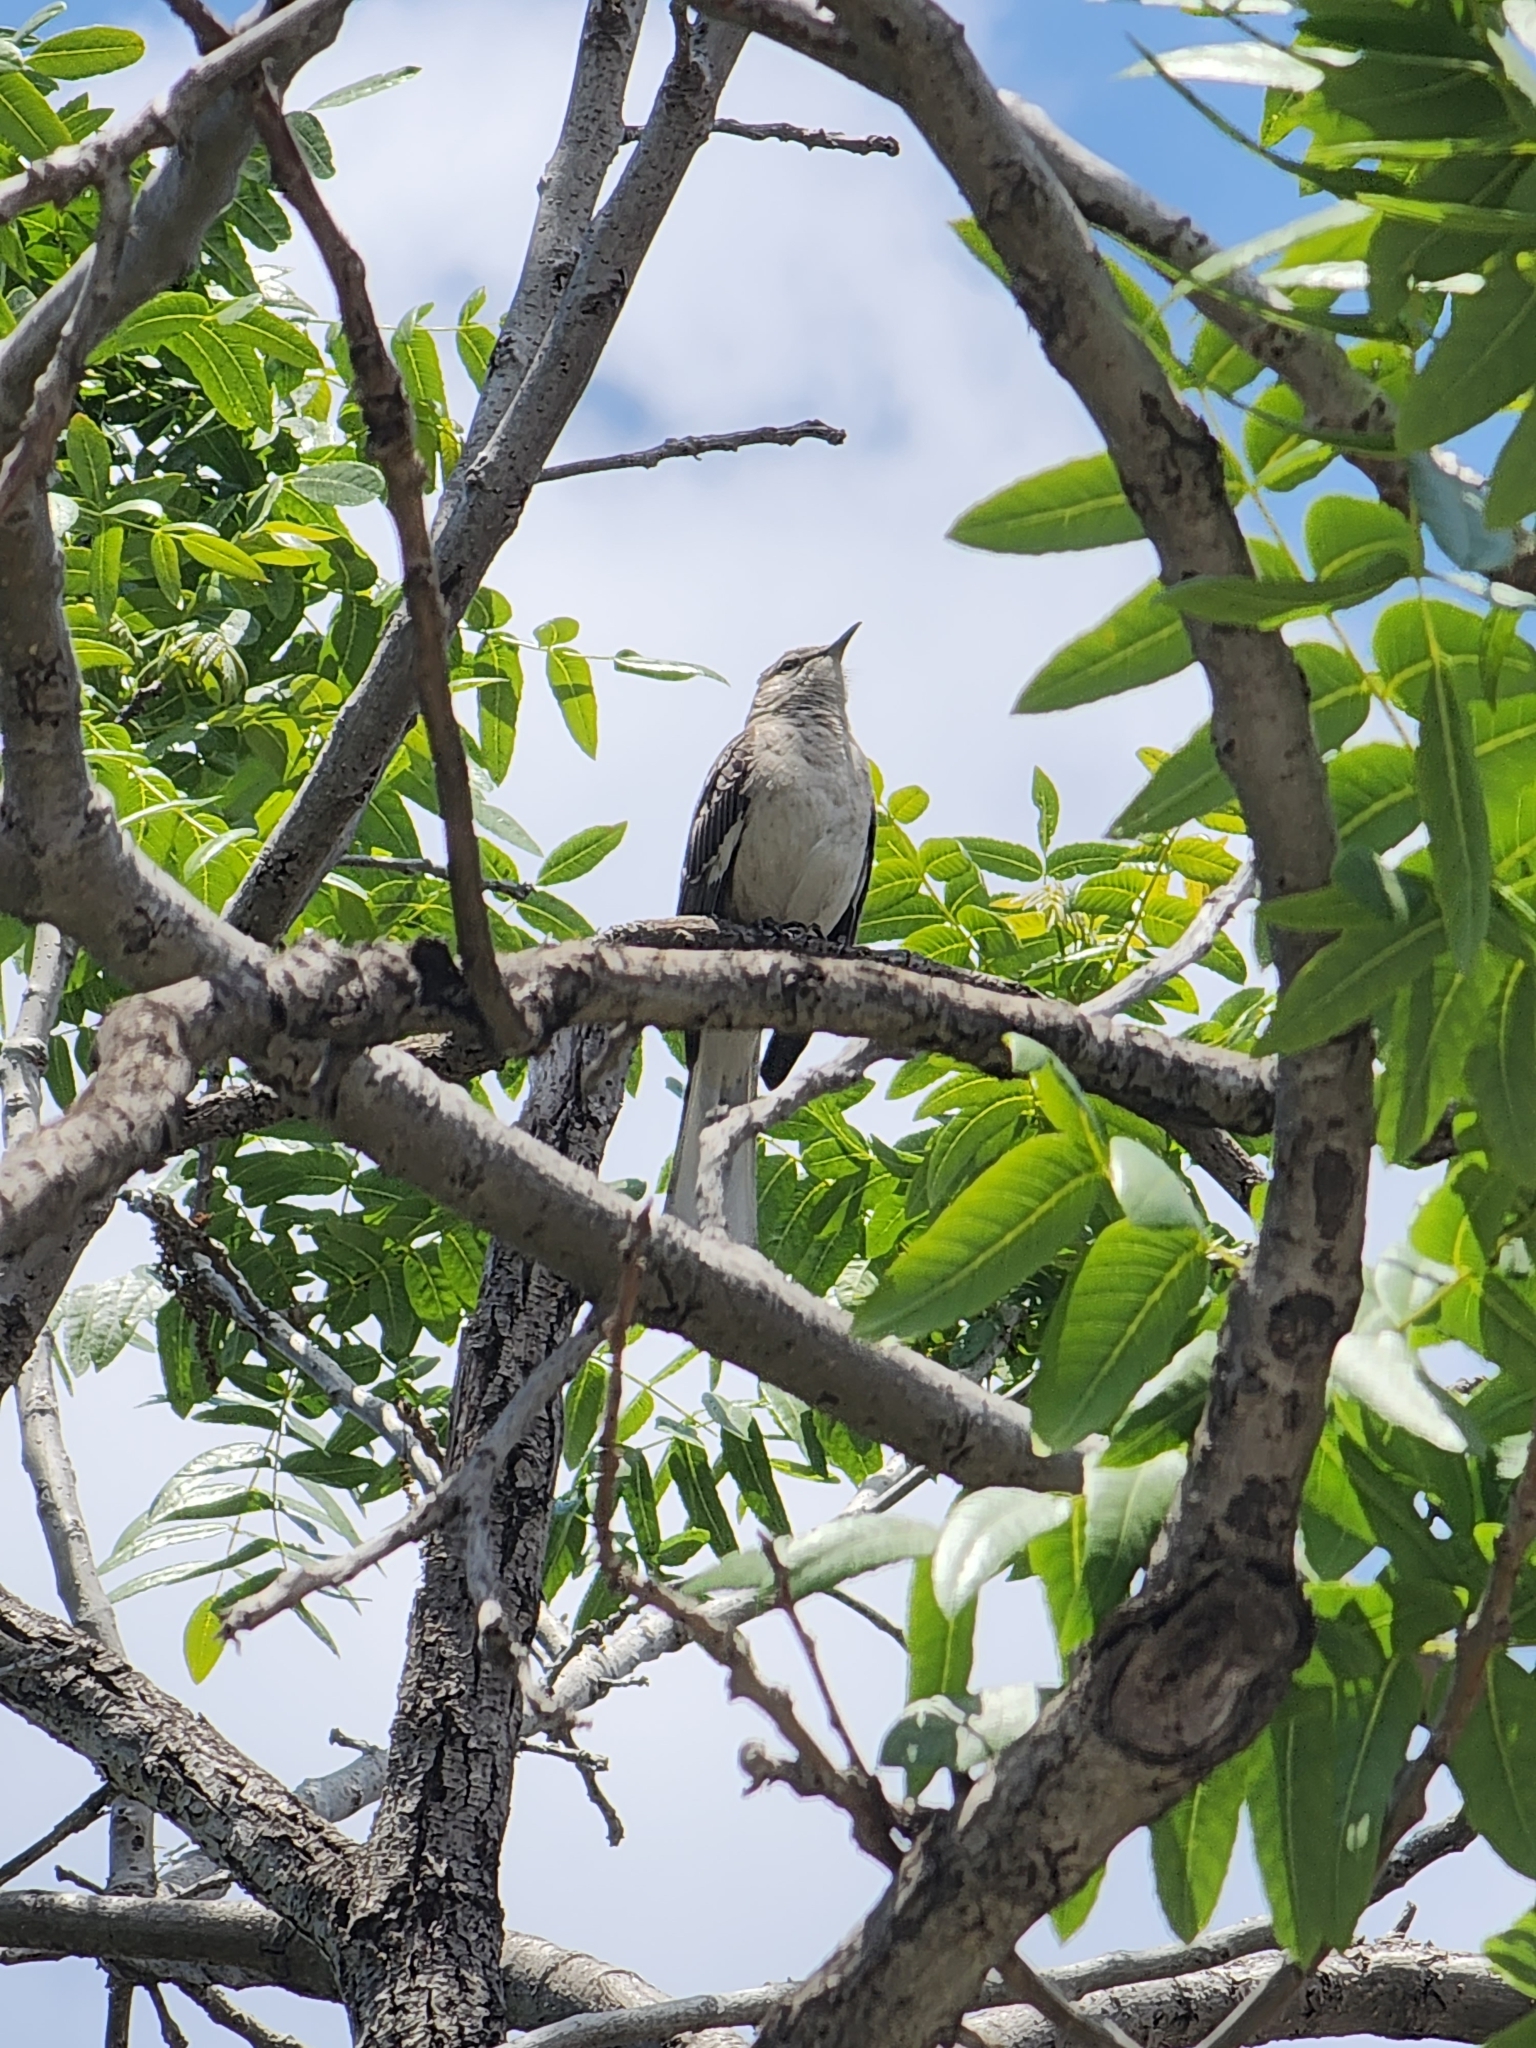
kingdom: Animalia
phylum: Chordata
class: Aves
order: Passeriformes
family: Mimidae
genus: Mimus
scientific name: Mimus polyglottos
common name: Northern mockingbird
